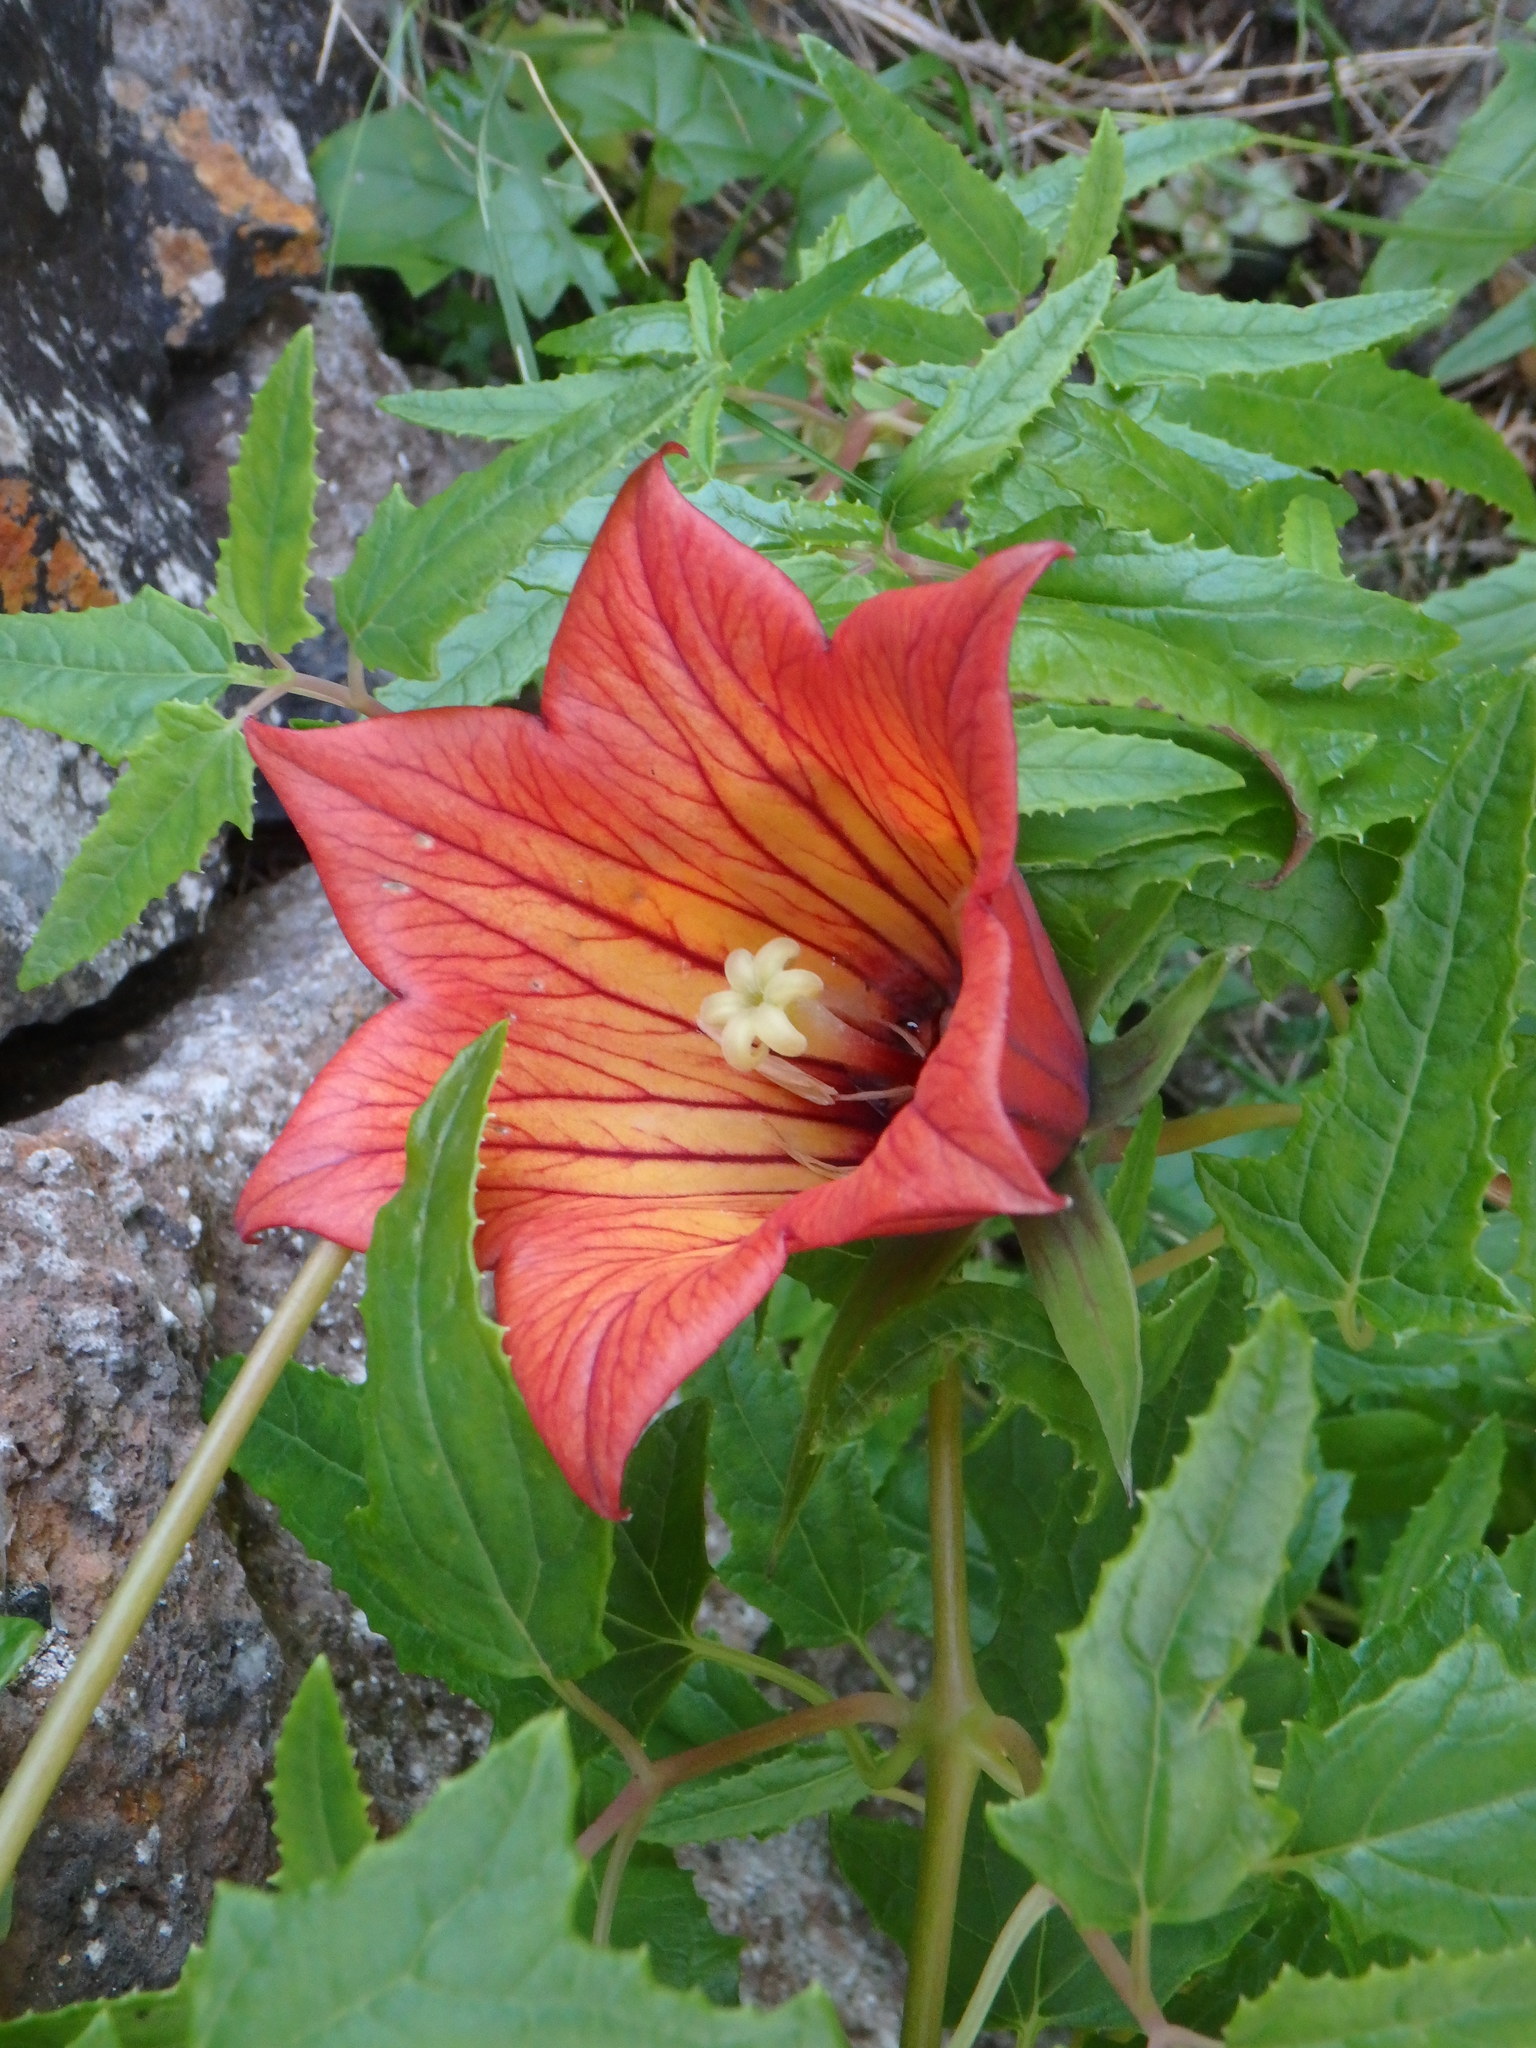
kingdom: Plantae
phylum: Tracheophyta
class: Magnoliopsida
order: Asterales
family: Campanulaceae
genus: Canarina
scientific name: Canarina canariensis
